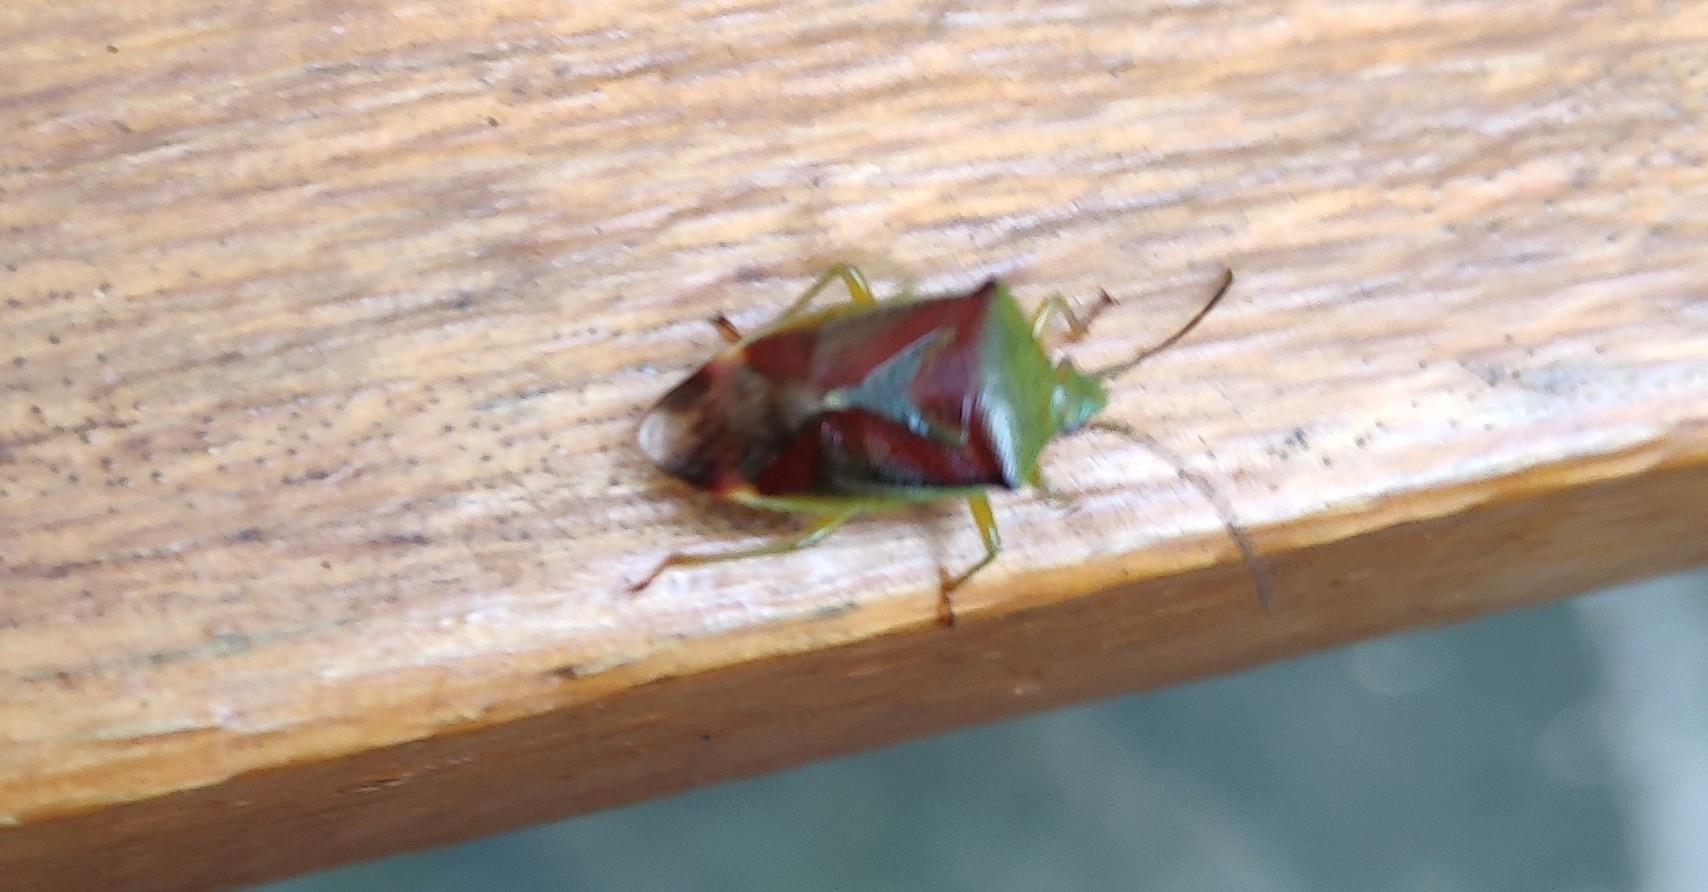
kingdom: Animalia
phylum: Arthropoda
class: Insecta
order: Hemiptera
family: Acanthosomatidae
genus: Elasmostethus
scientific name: Elasmostethus interstinctus
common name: Birch shieldbug
